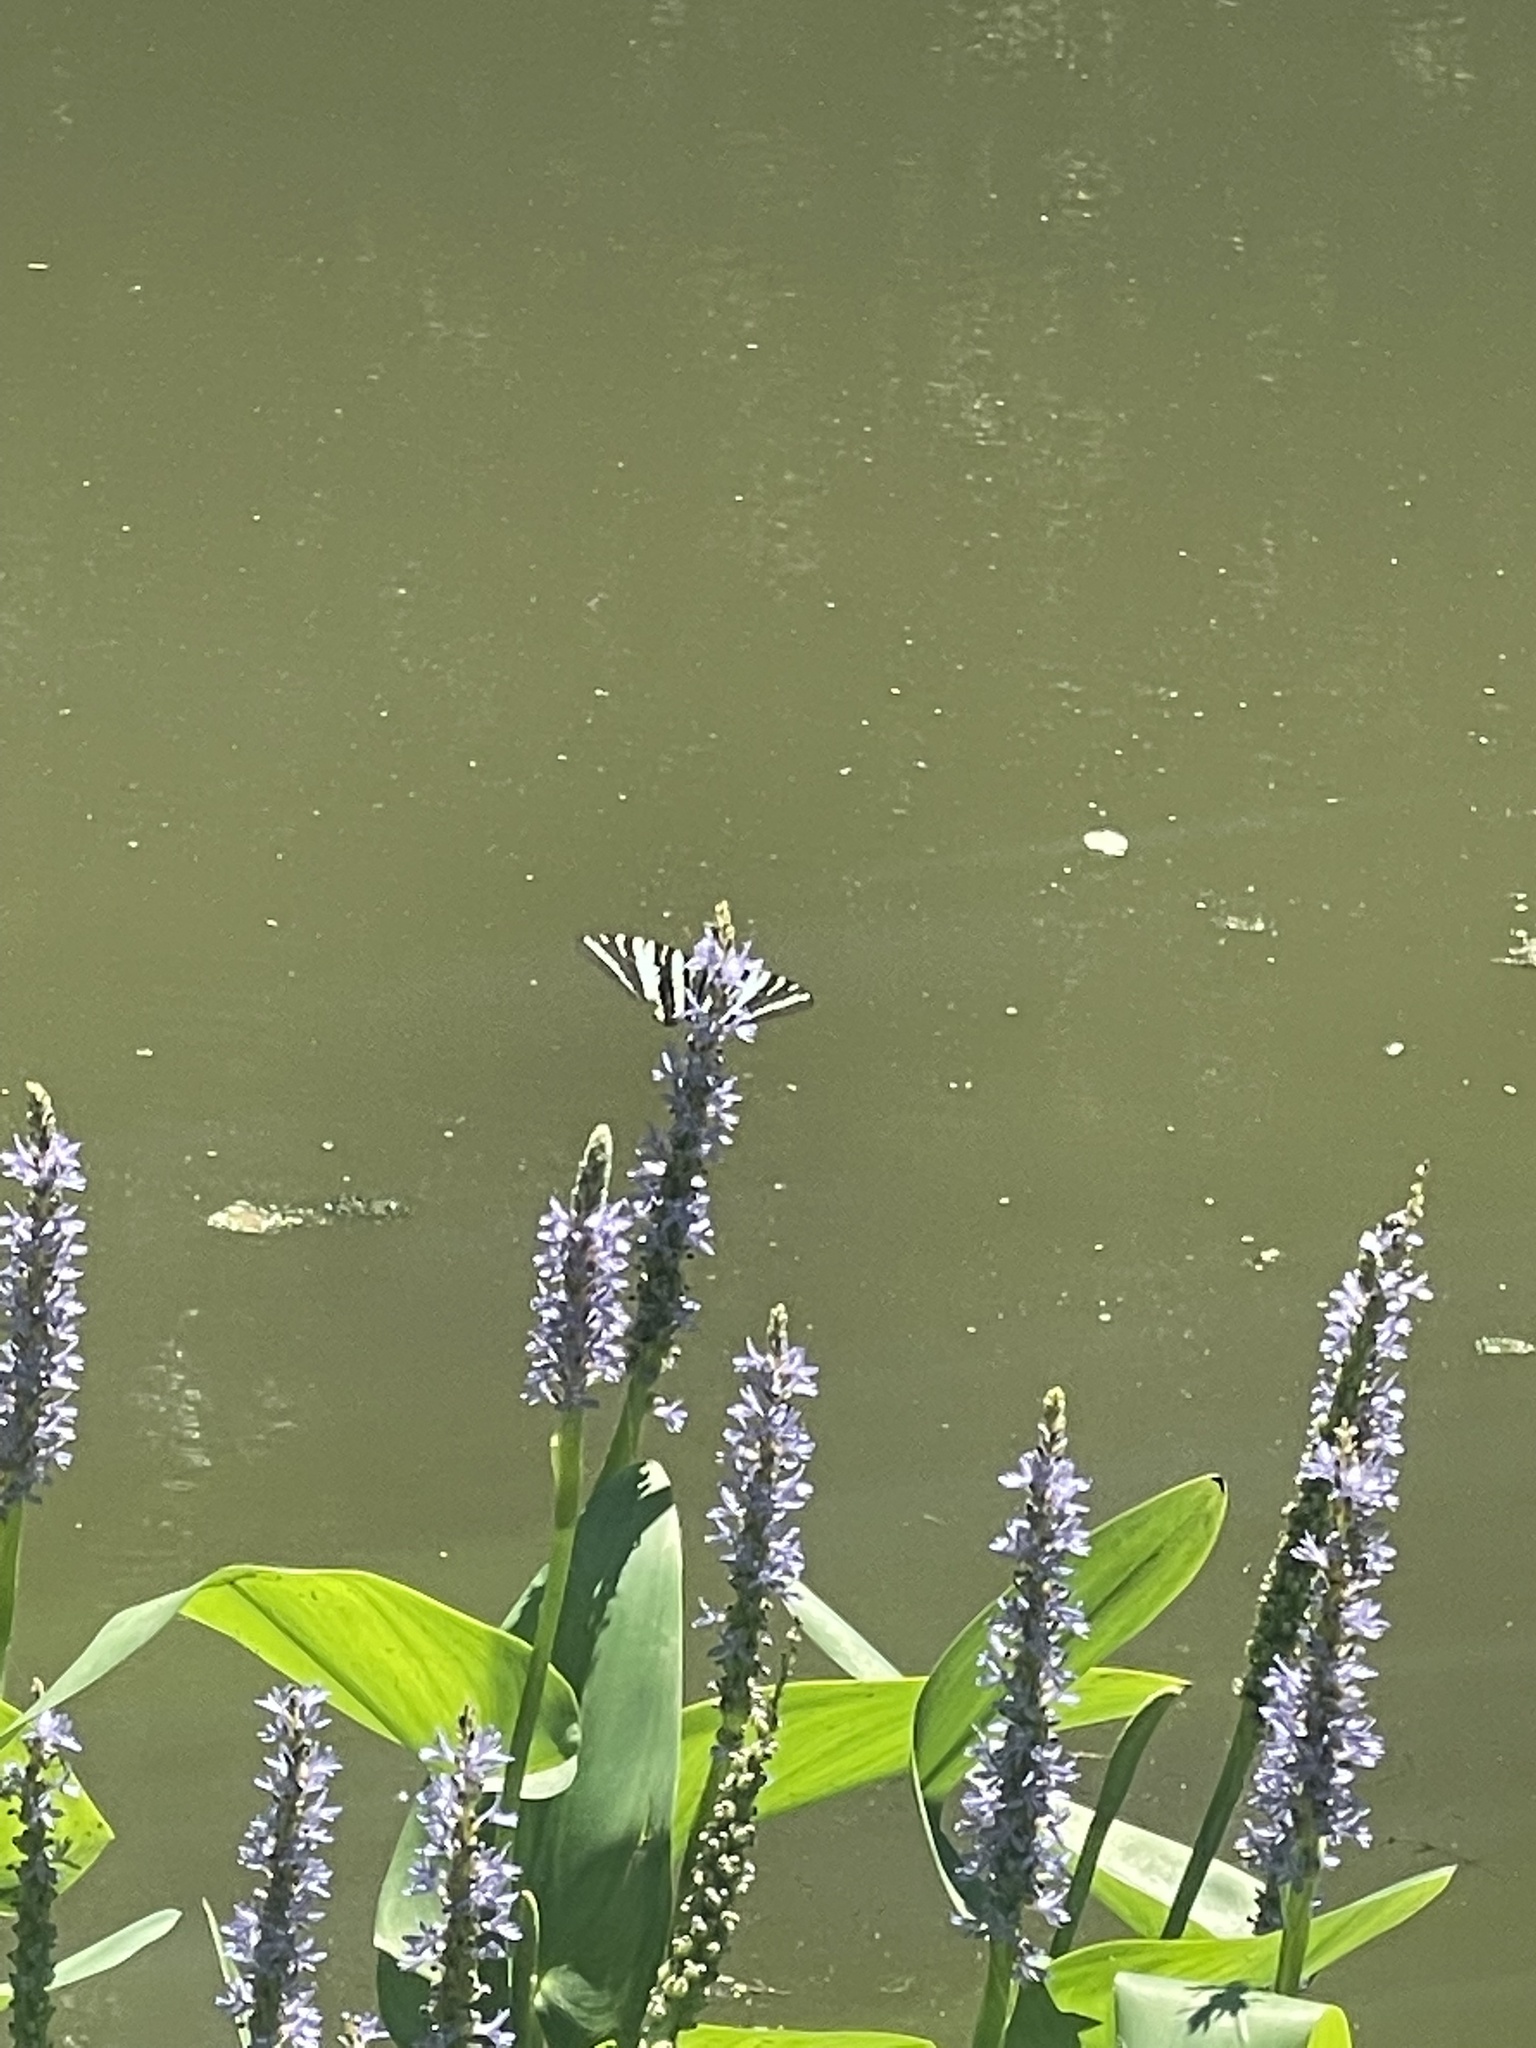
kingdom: Animalia
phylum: Arthropoda
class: Insecta
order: Lepidoptera
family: Papilionidae
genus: Protographium
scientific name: Protographium marcellus
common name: Zebra swallowtail
